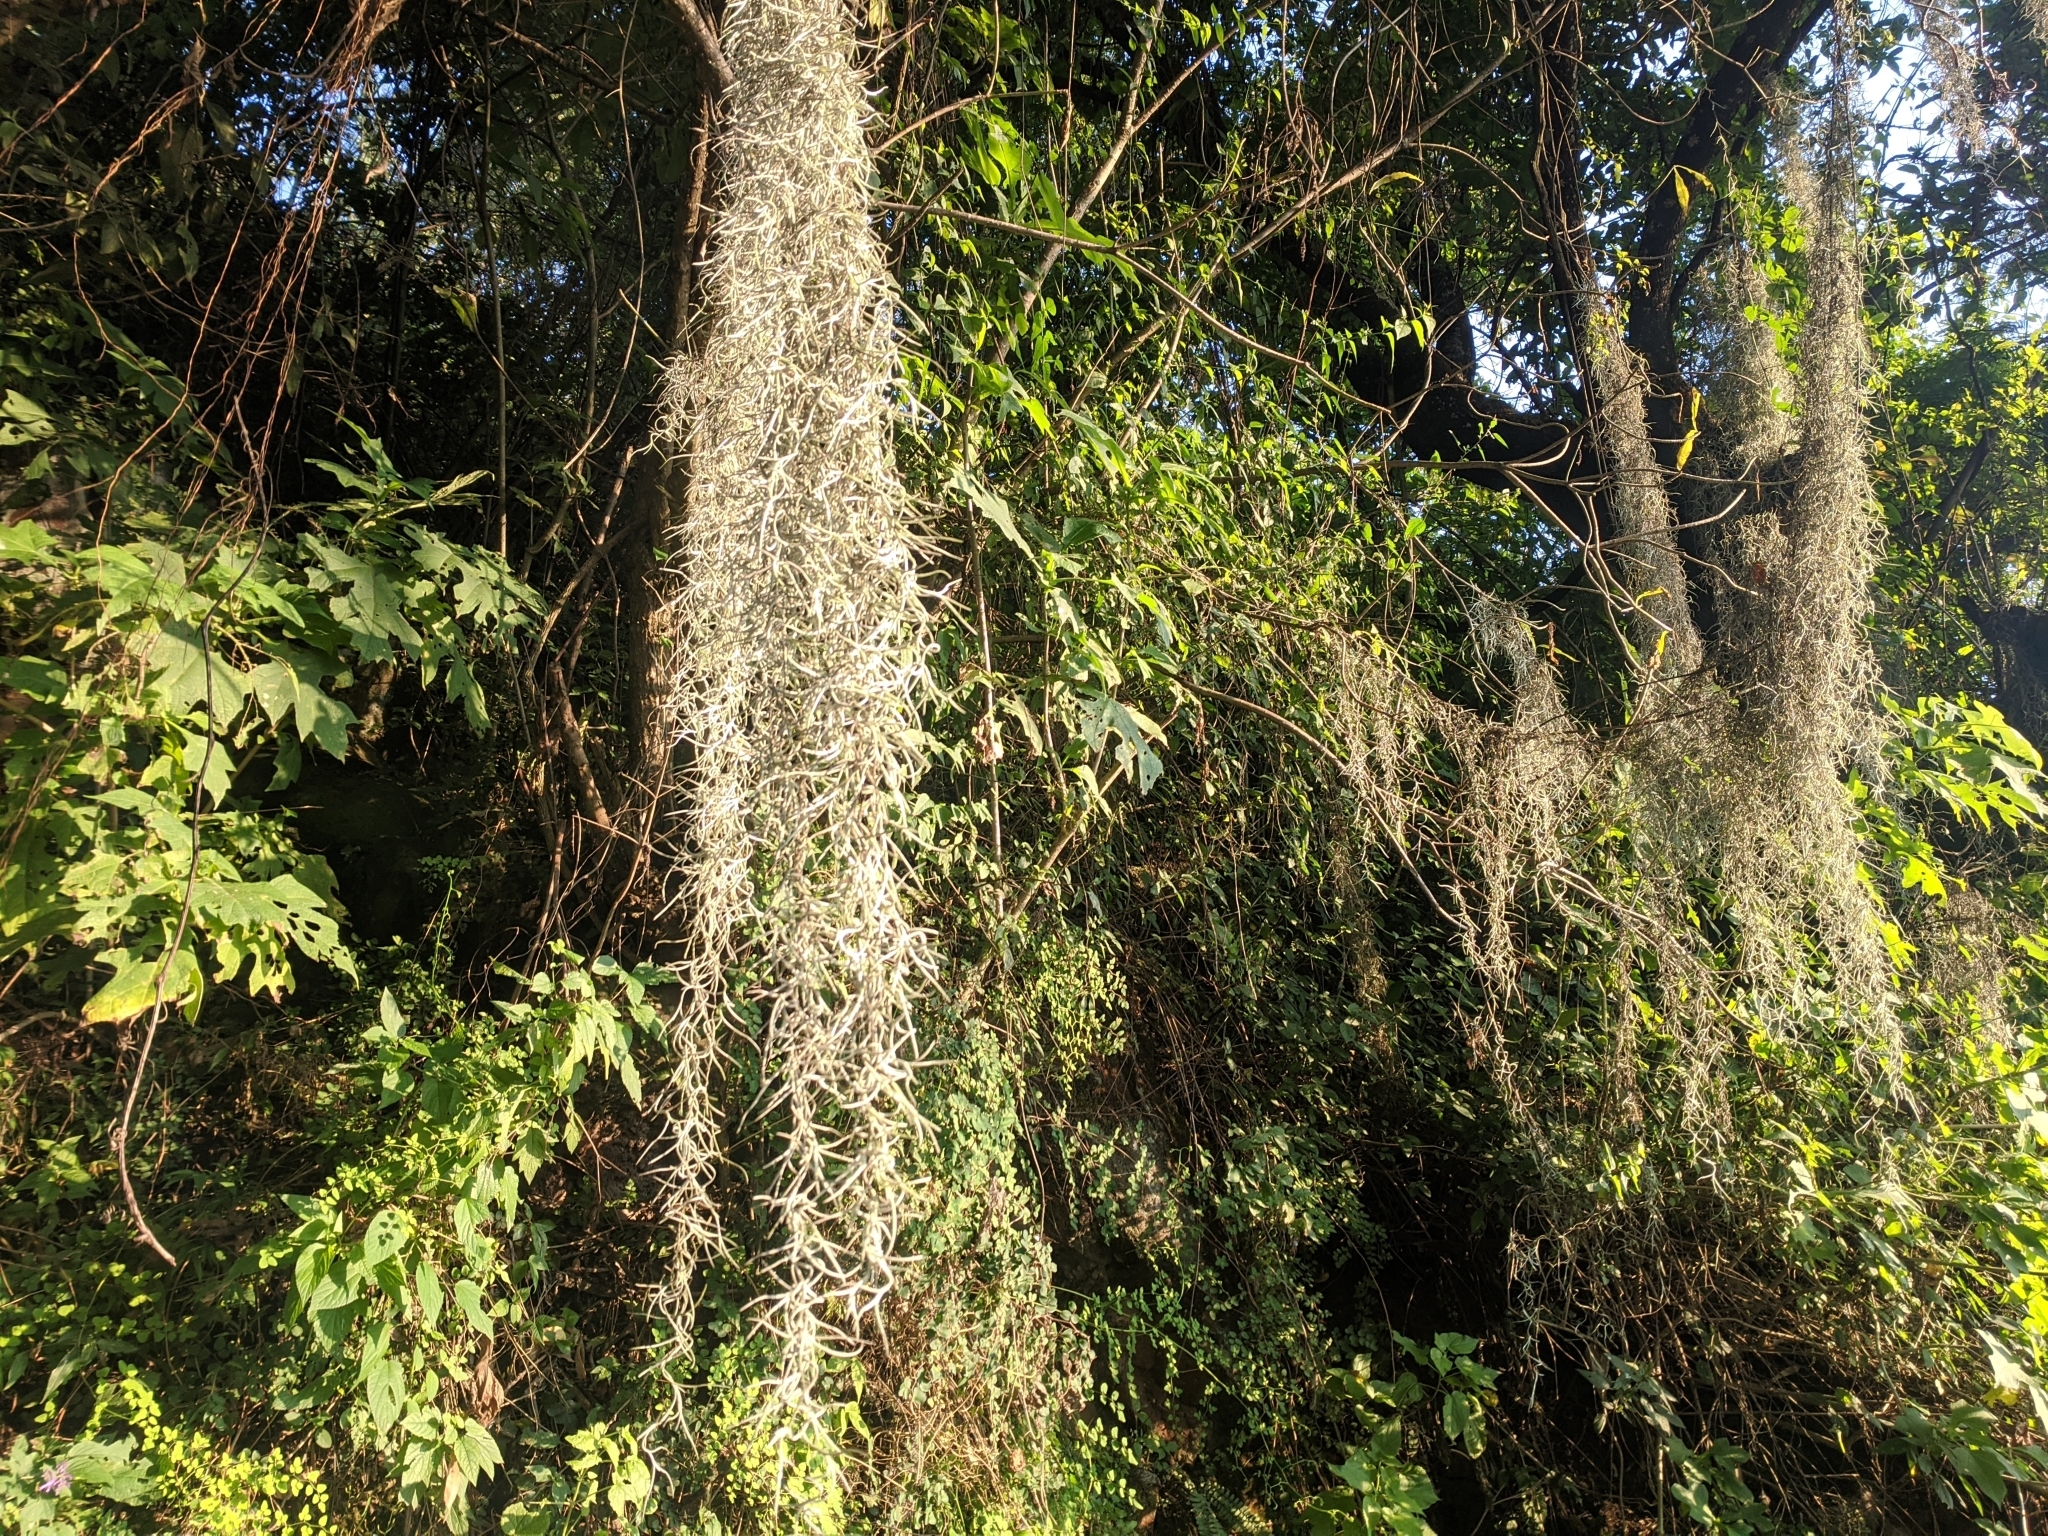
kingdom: Plantae
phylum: Tracheophyta
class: Liliopsida
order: Poales
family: Bromeliaceae
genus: Tillandsia
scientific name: Tillandsia usneoides
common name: Spanish moss
